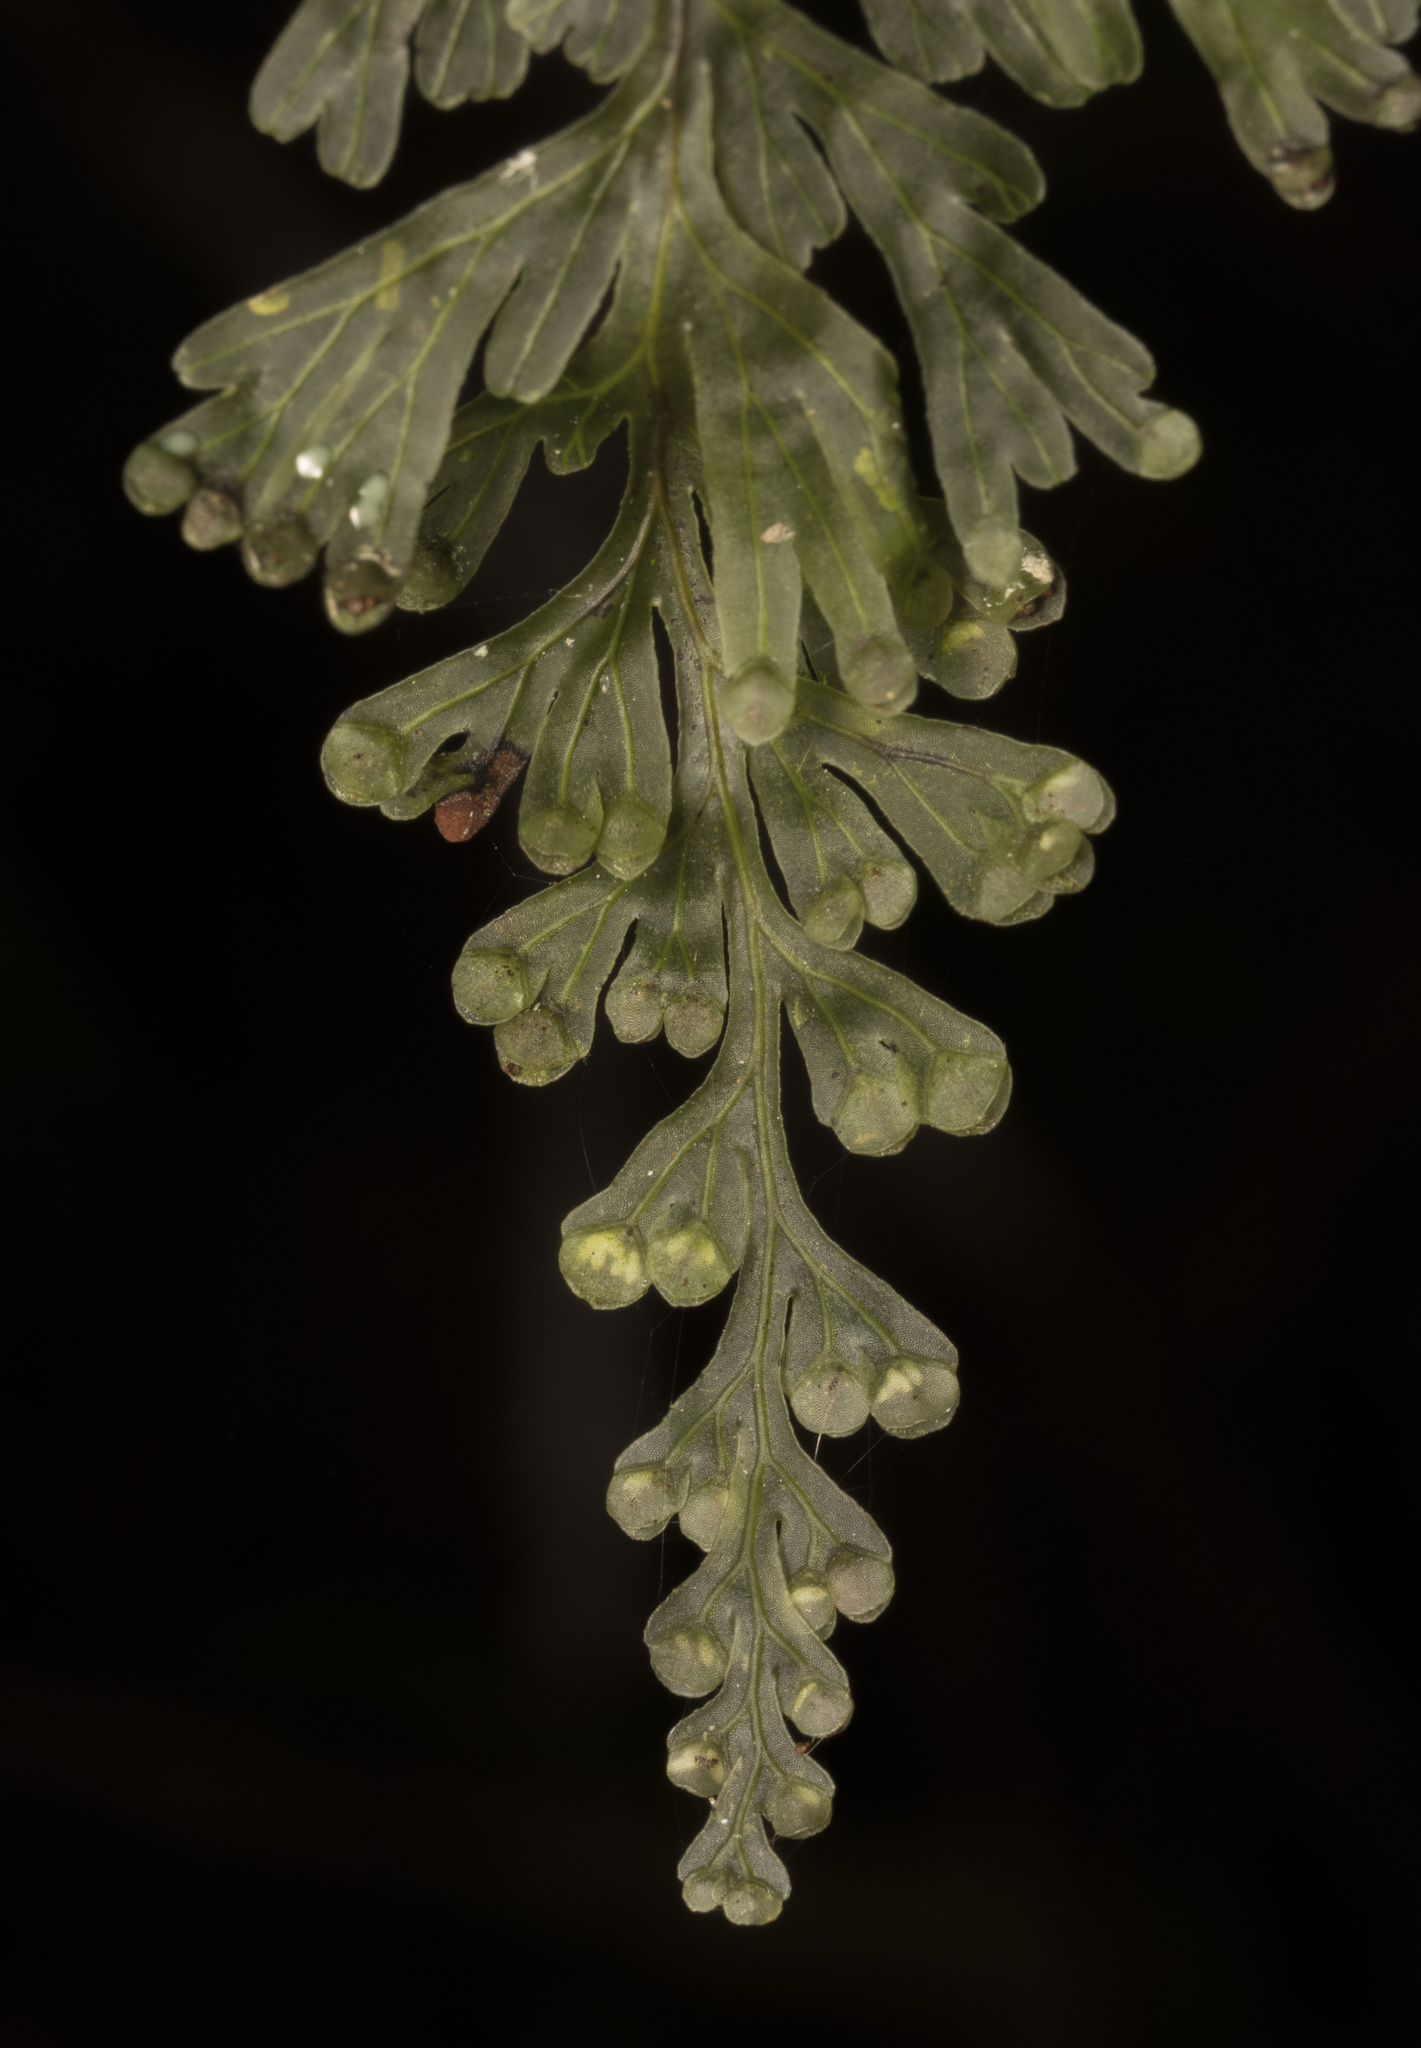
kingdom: Plantae
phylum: Tracheophyta
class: Polypodiopsida
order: Hymenophyllales
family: Hymenophyllaceae
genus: Hymenophyllum
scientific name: Hymenophyllum cuneatum
